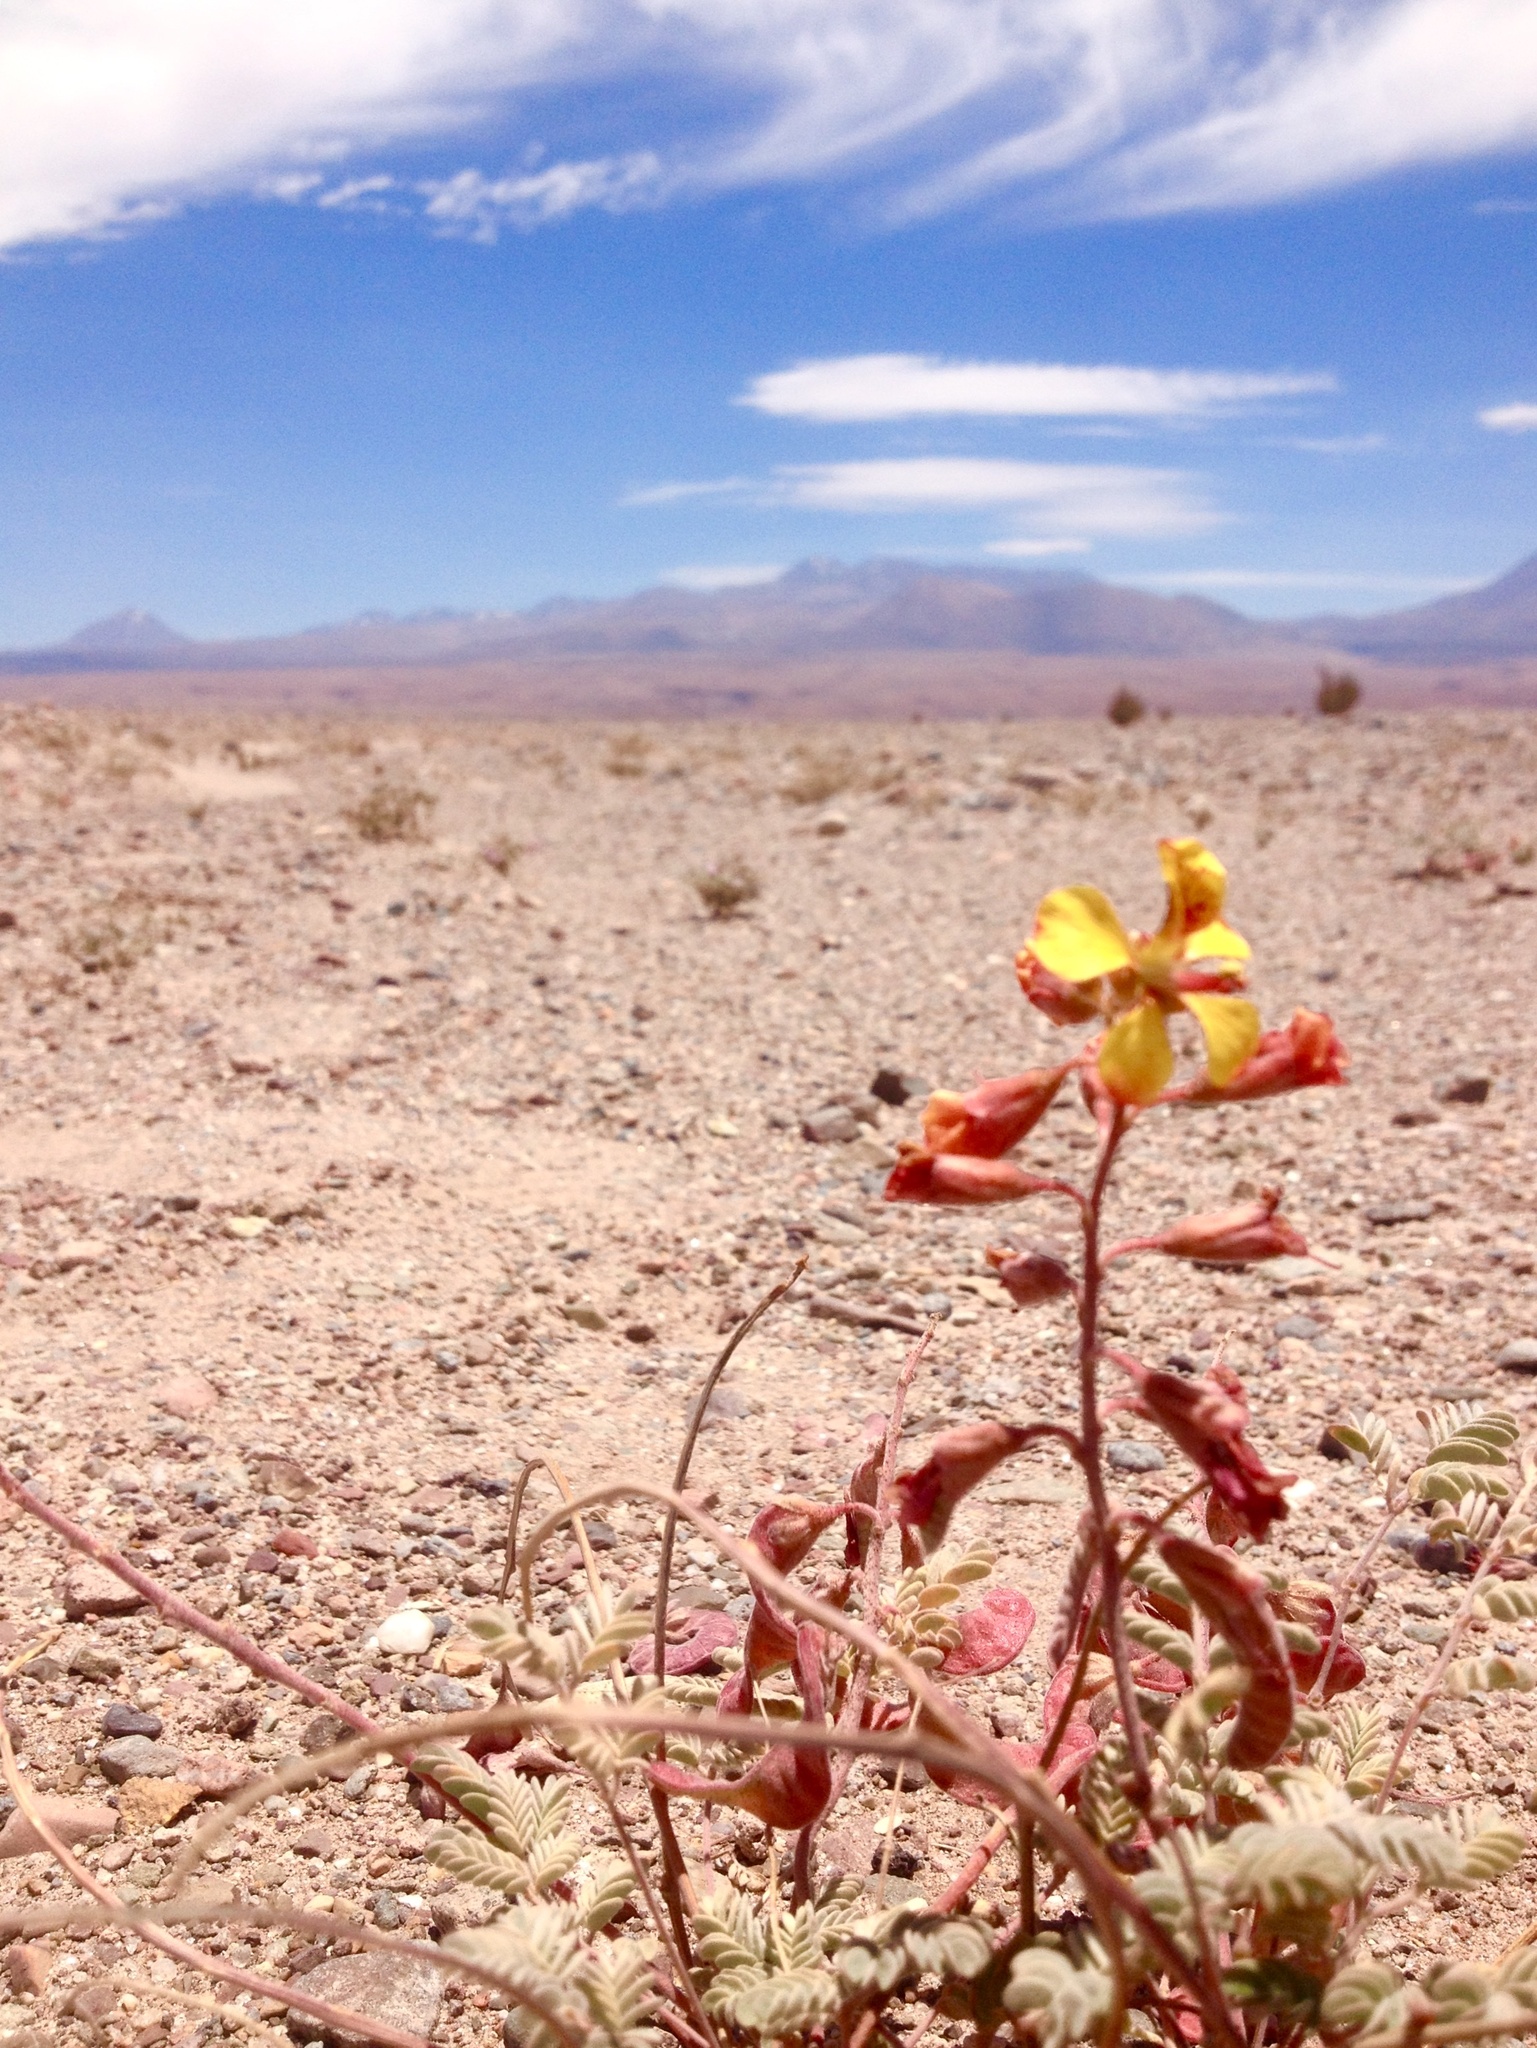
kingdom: Plantae
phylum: Tracheophyta
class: Magnoliopsida
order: Fabales
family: Fabaceae
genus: Hoffmannseggia
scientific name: Hoffmannseggia doellii
